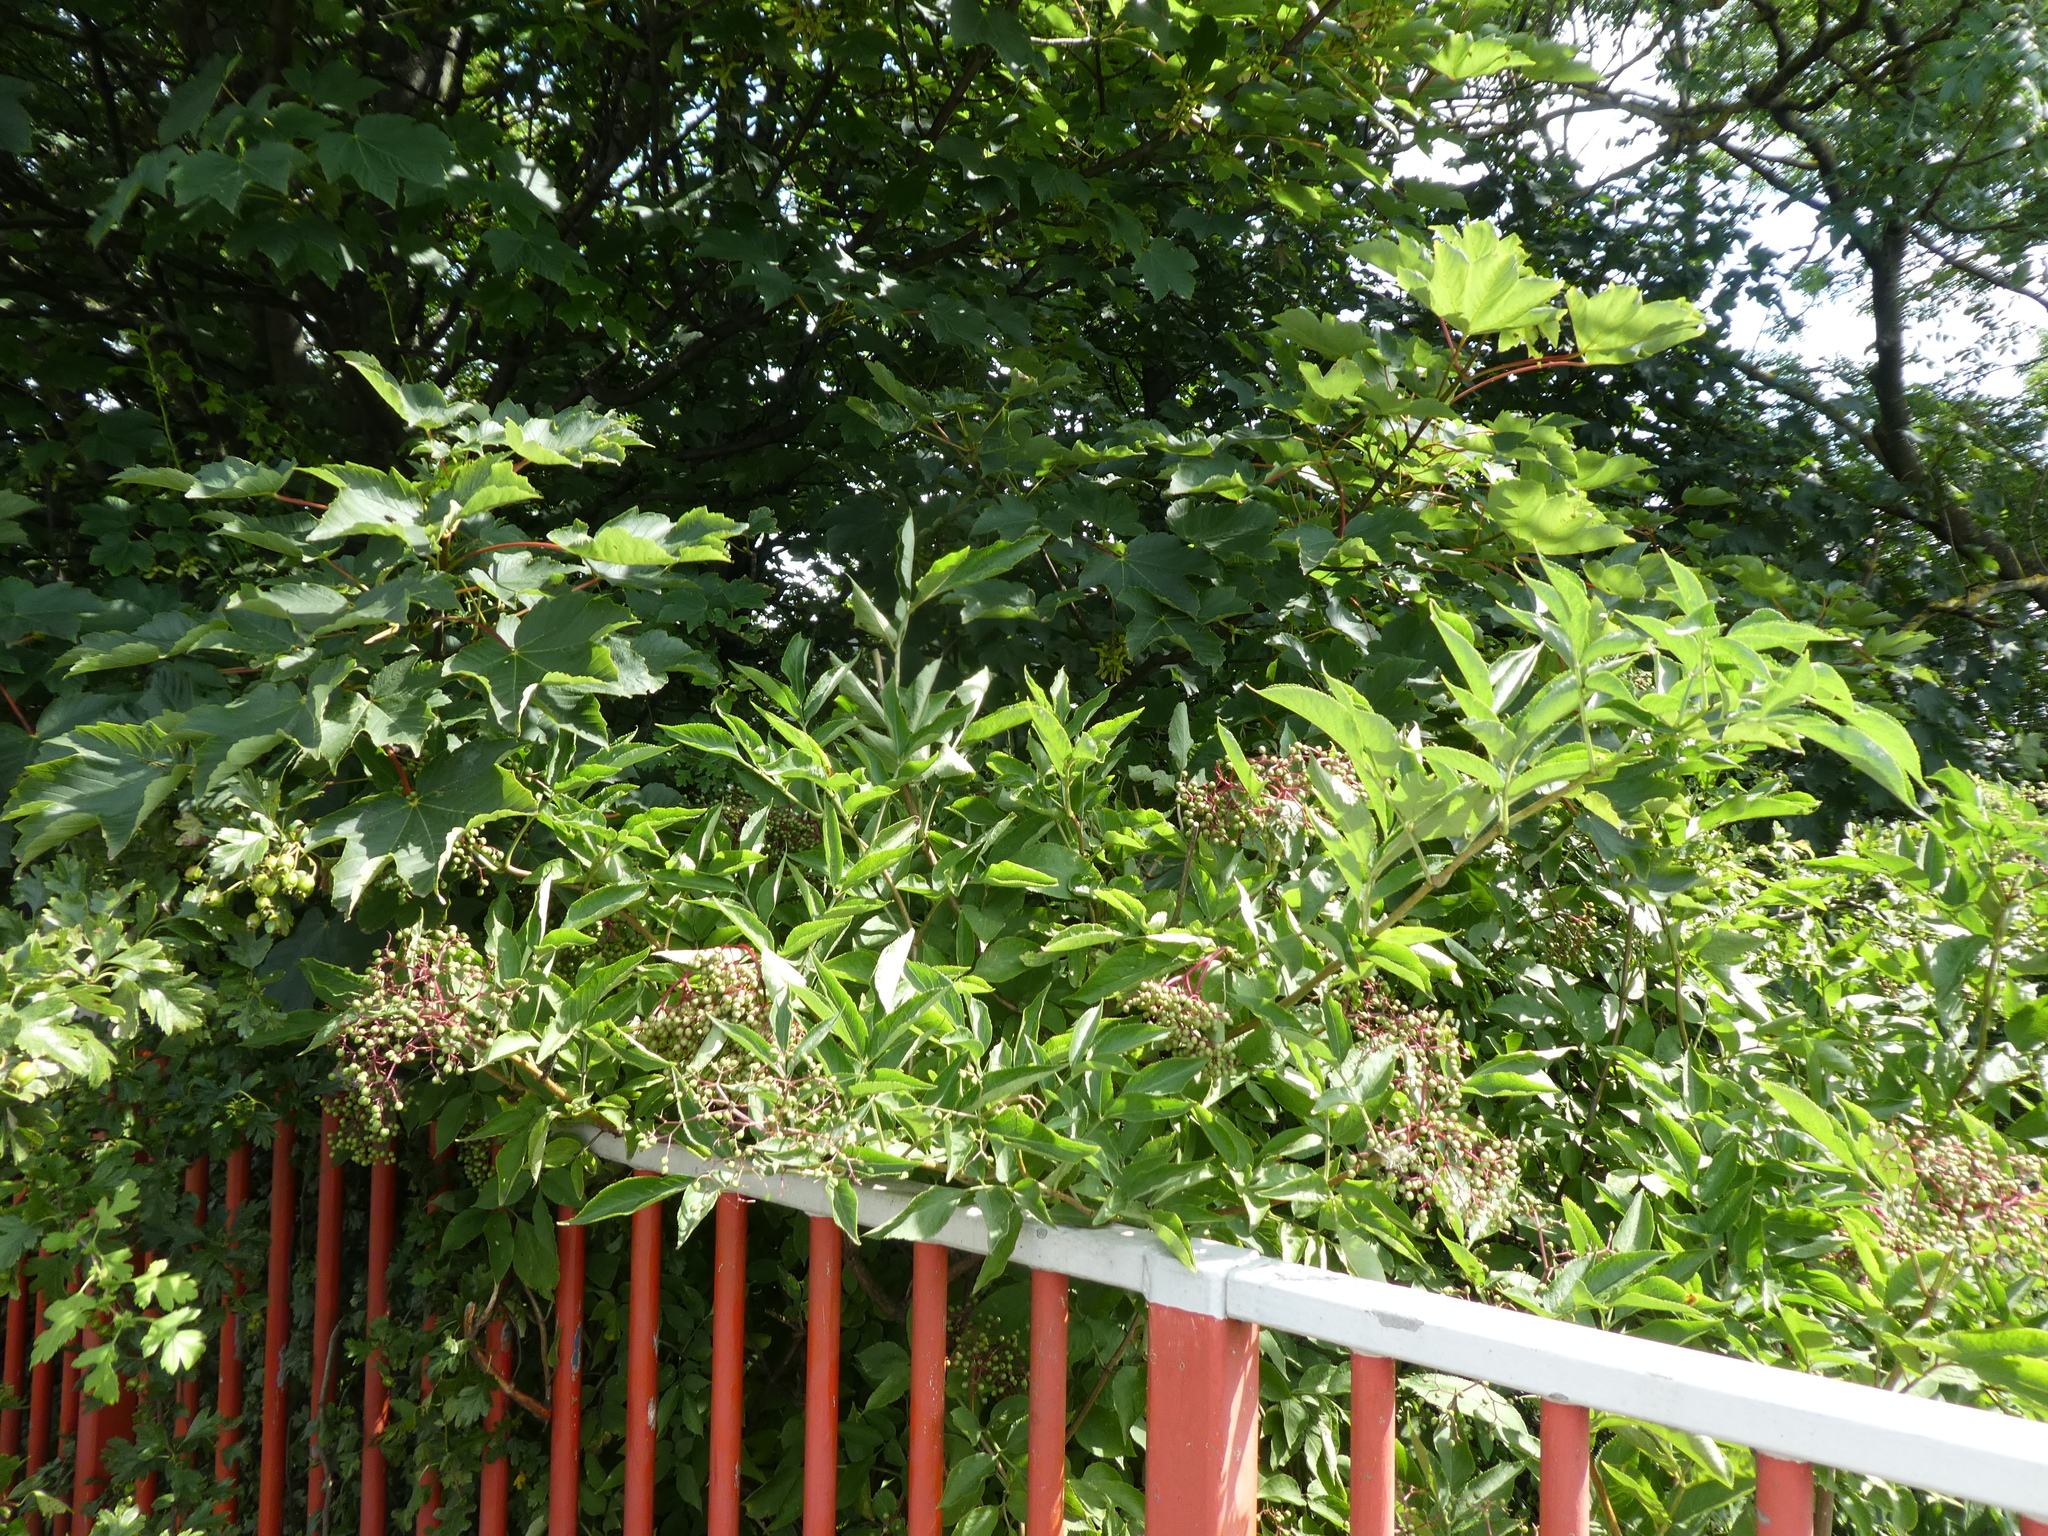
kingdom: Plantae
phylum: Tracheophyta
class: Magnoliopsida
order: Dipsacales
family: Viburnaceae
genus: Sambucus
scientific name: Sambucus nigra
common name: Elder
